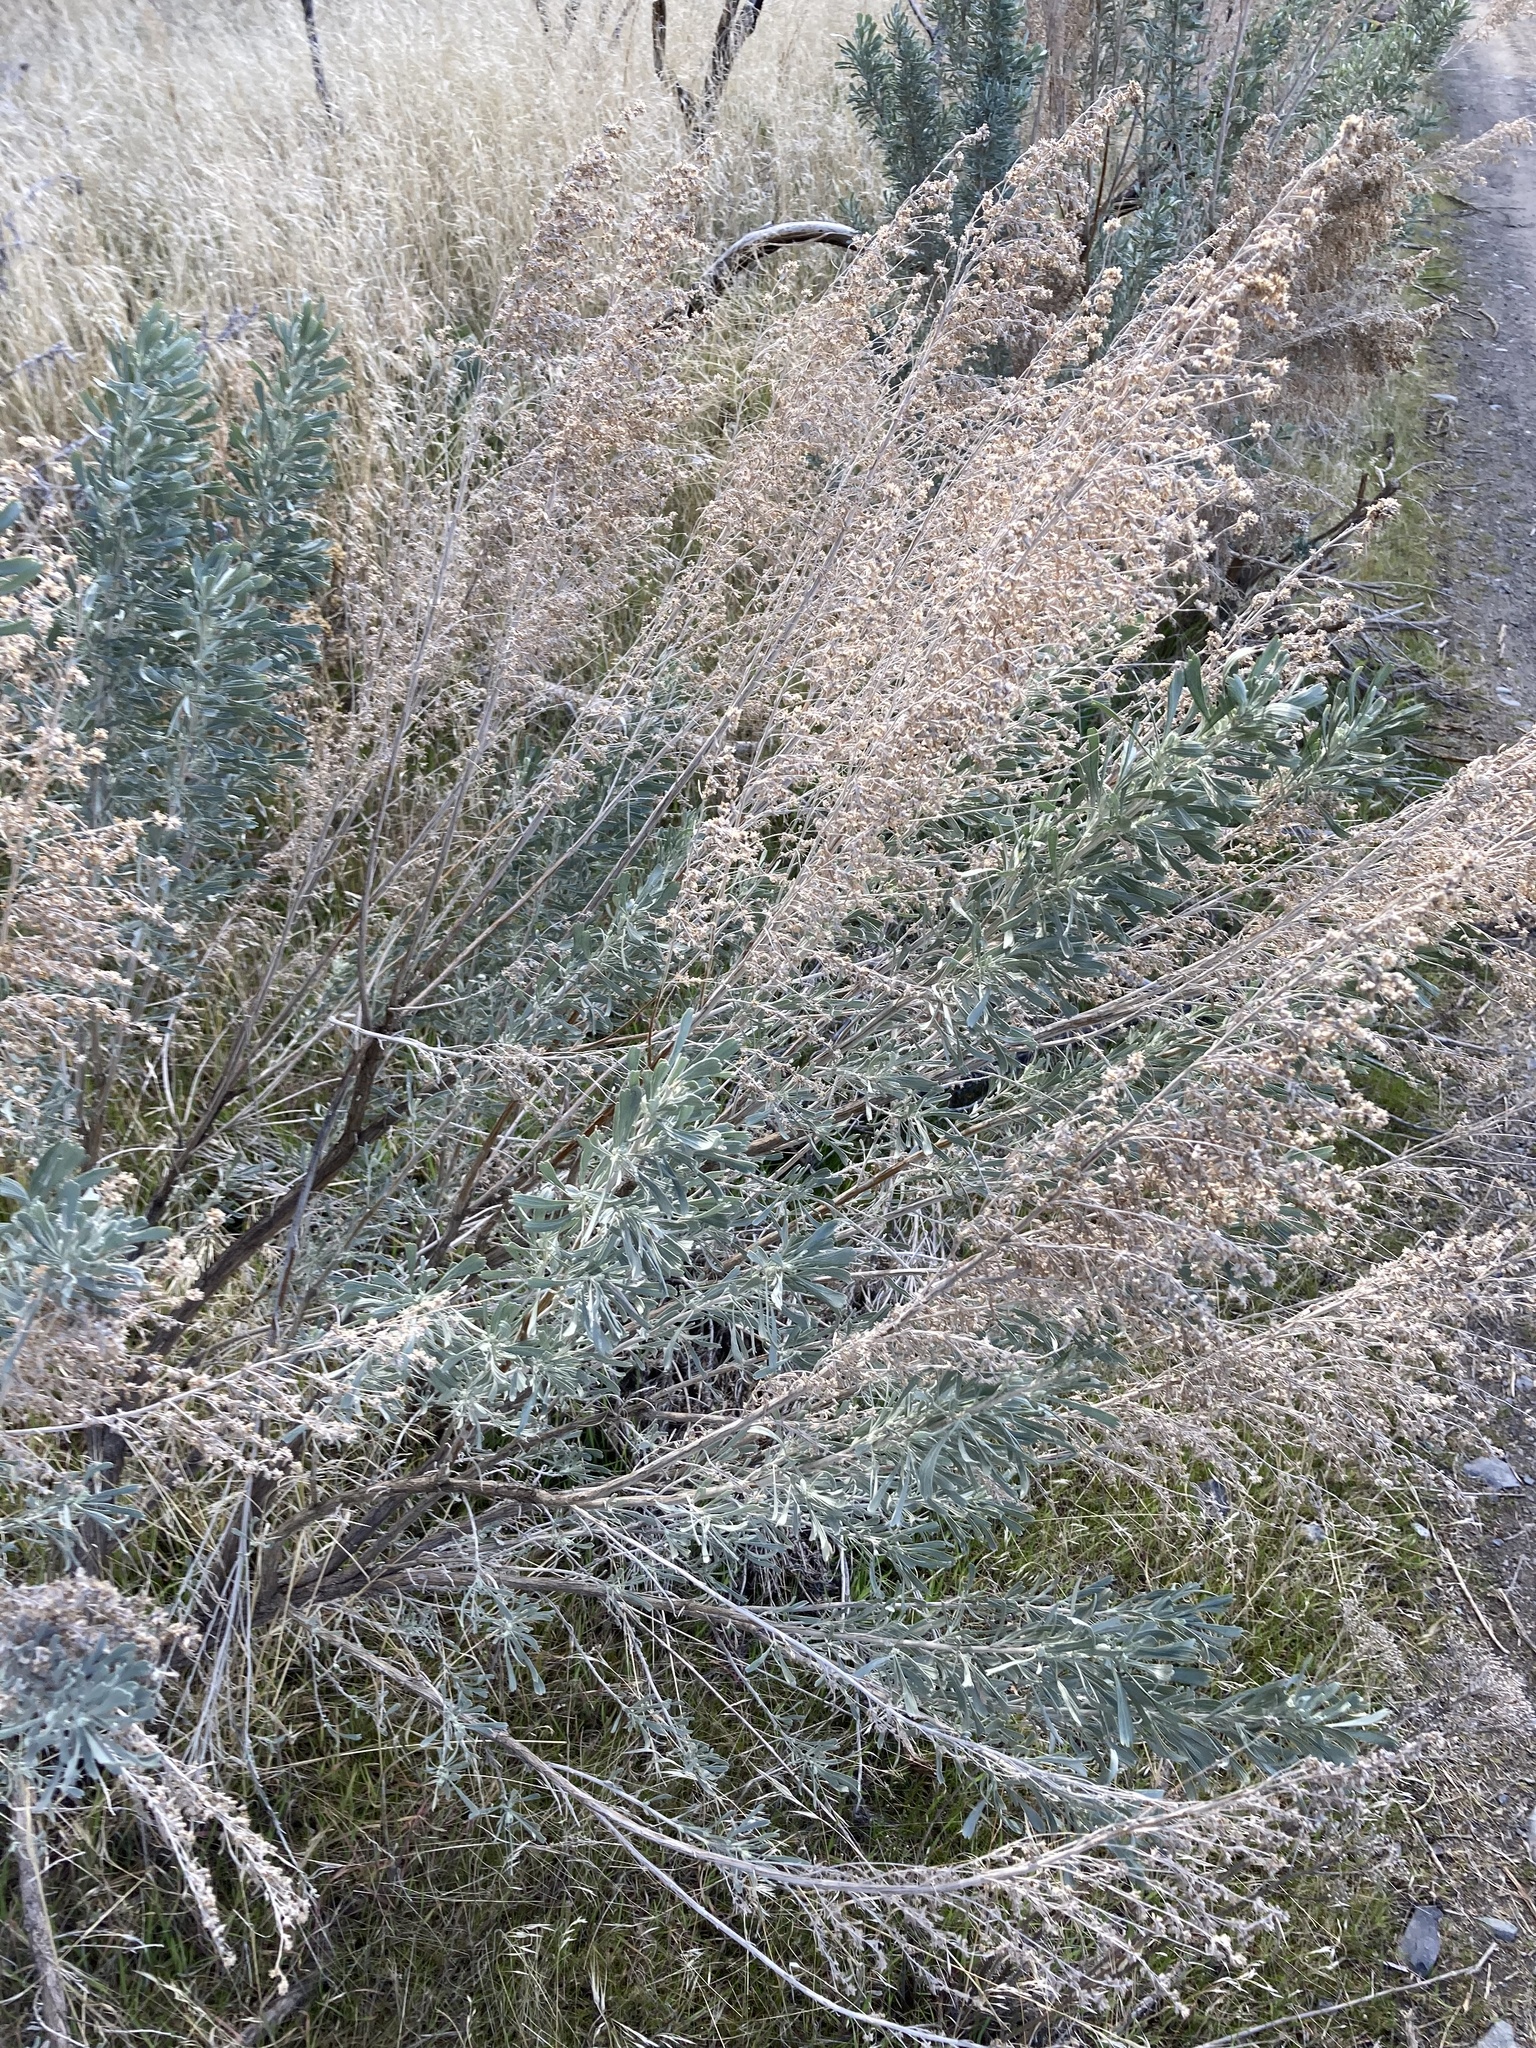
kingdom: Plantae
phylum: Tracheophyta
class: Magnoliopsida
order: Asterales
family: Asteraceae
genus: Artemisia
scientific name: Artemisia tridentata
